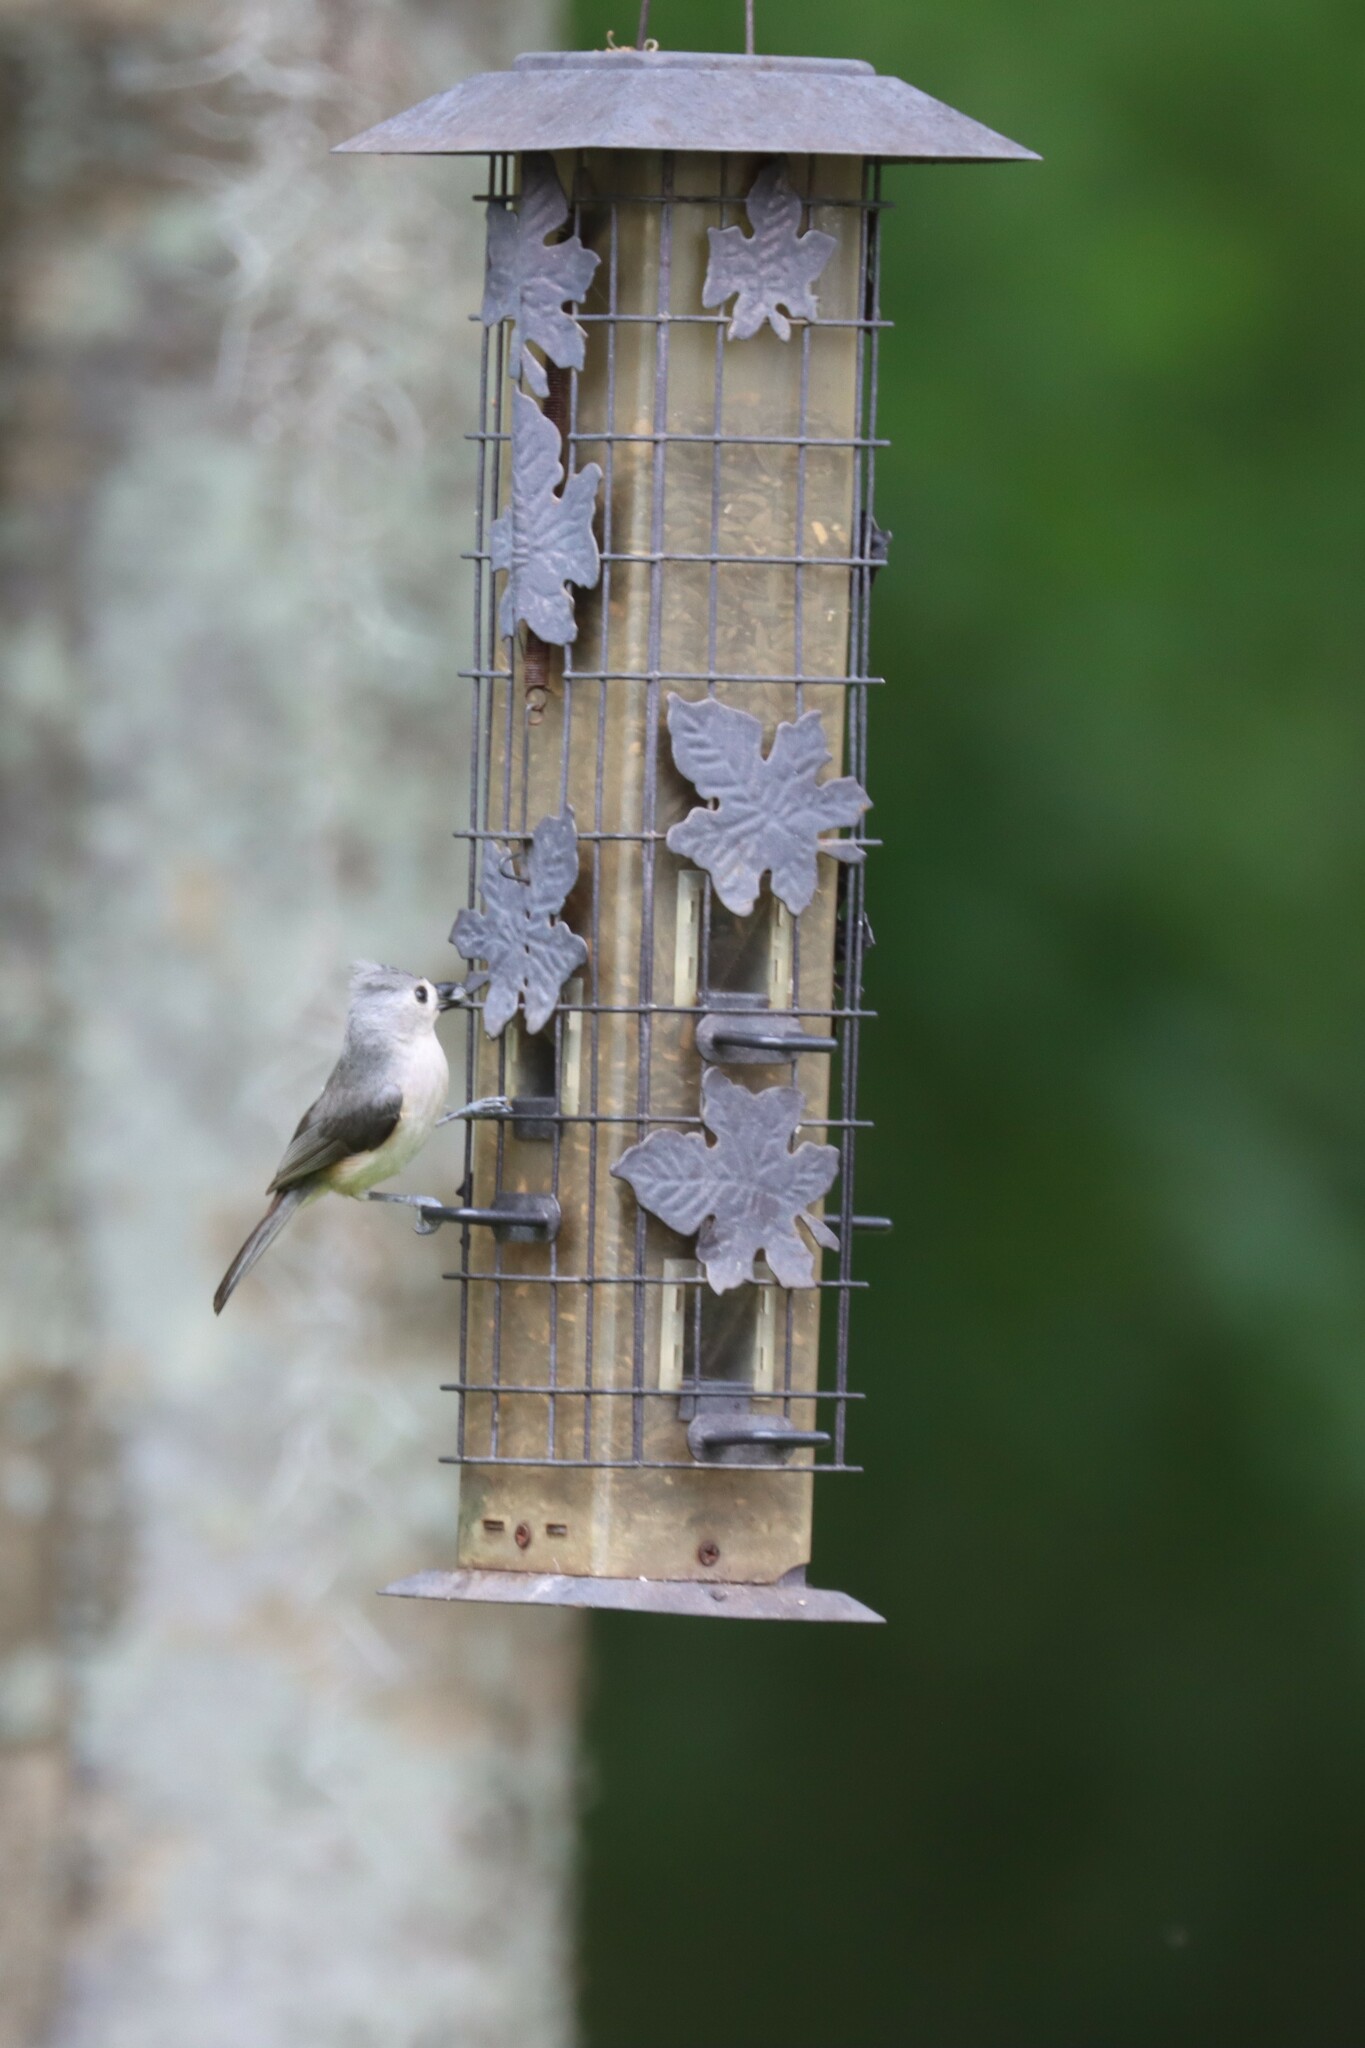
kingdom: Animalia
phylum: Chordata
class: Aves
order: Passeriformes
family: Paridae
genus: Baeolophus
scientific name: Baeolophus bicolor
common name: Tufted titmouse
